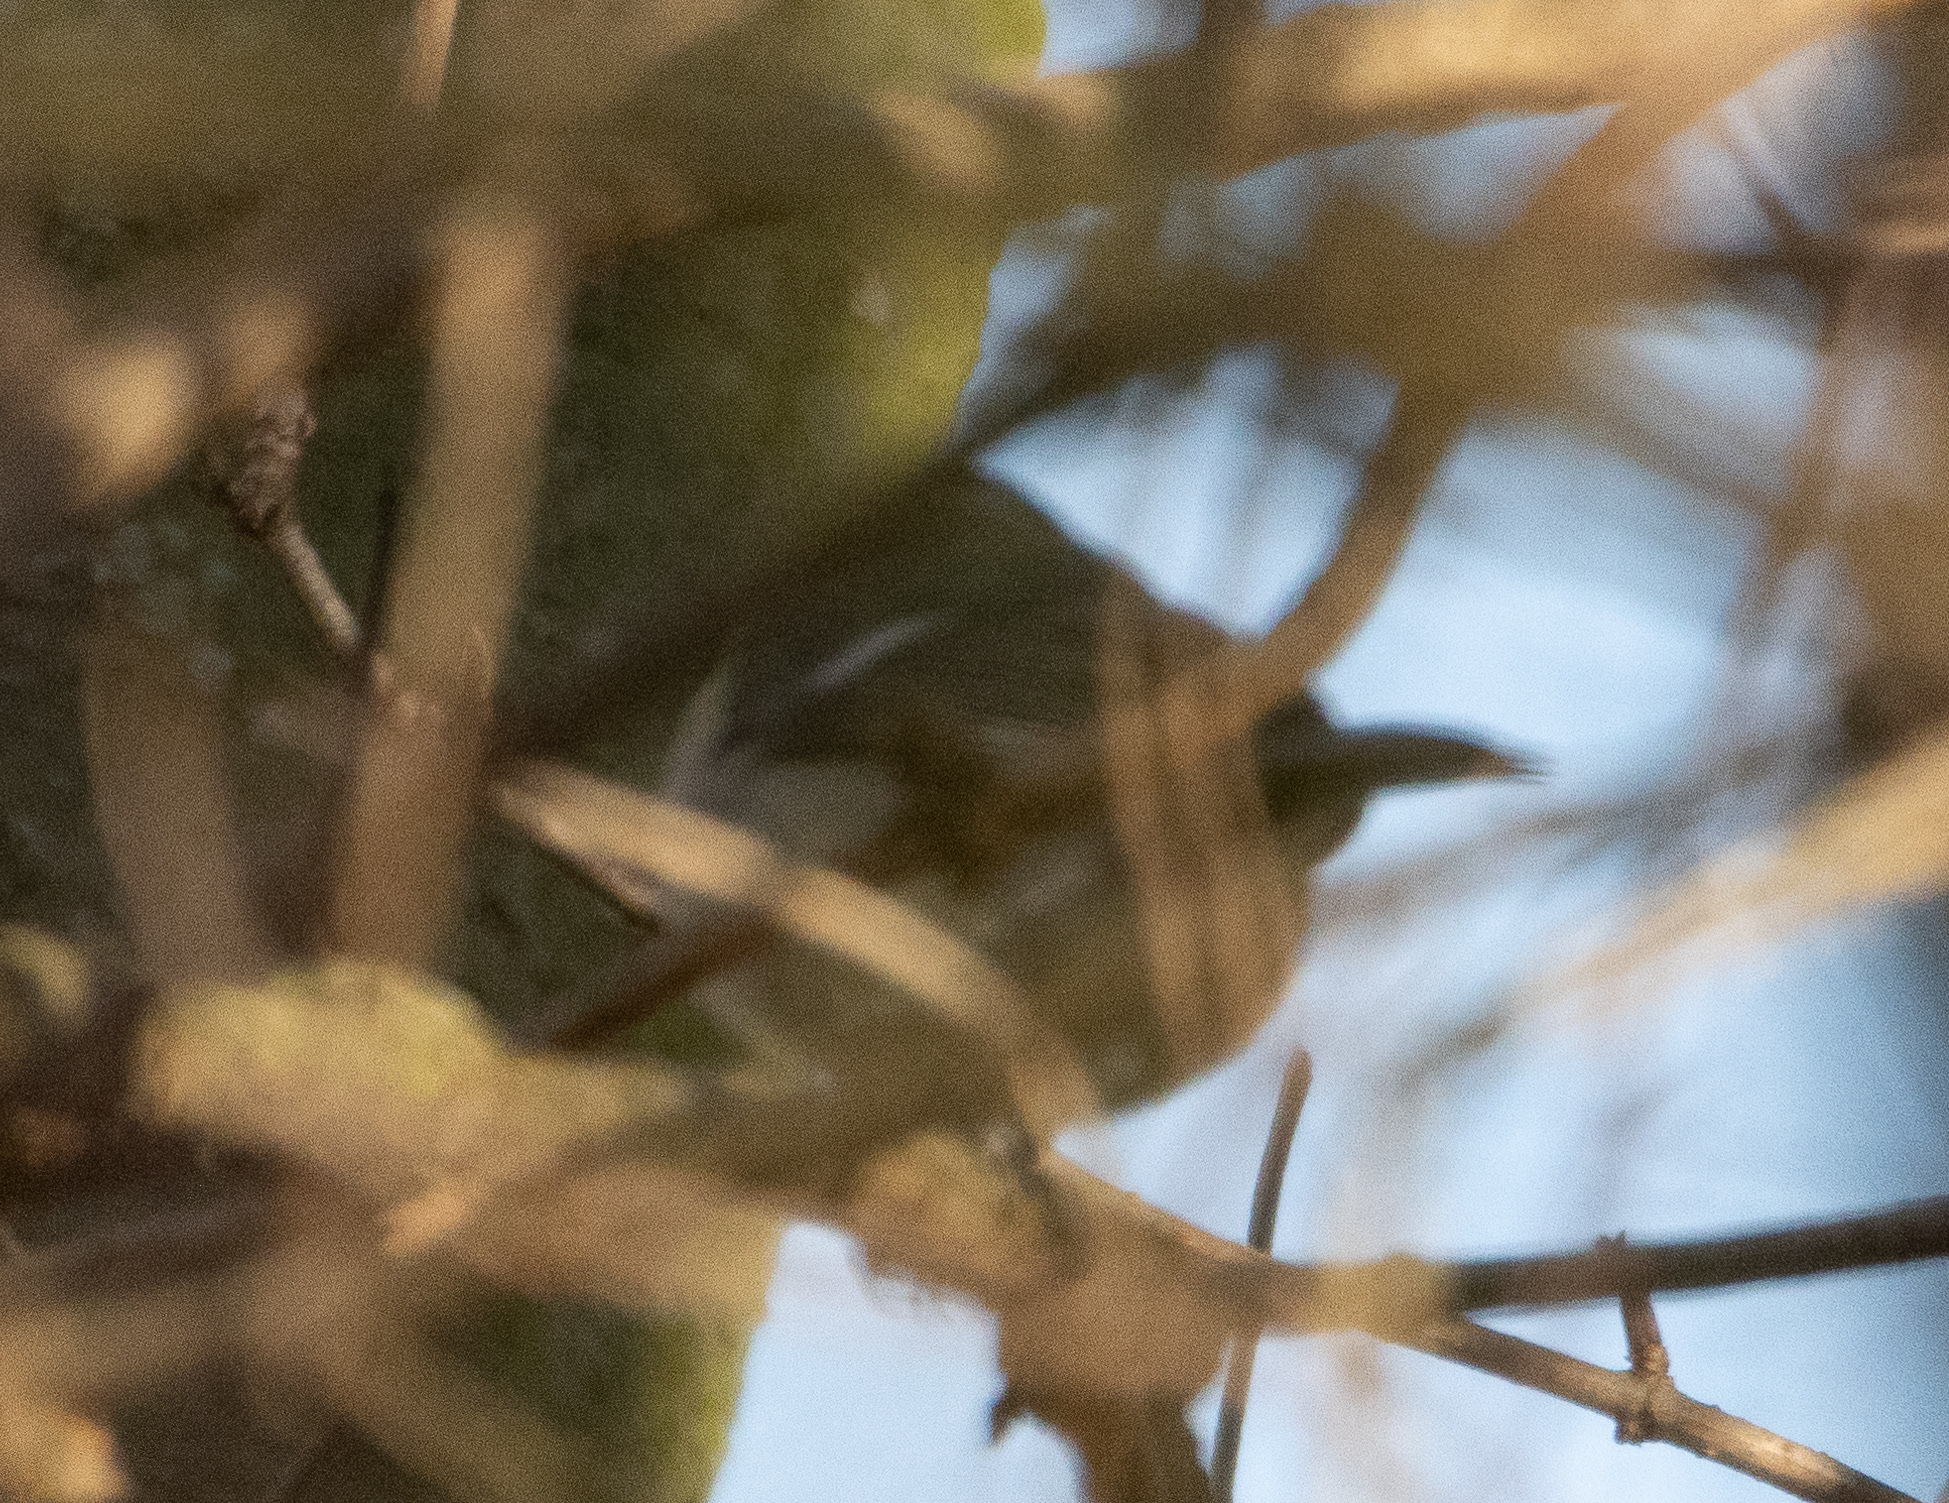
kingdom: Animalia
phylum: Chordata
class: Aves
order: Passeriformes
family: Regulidae
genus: Regulus
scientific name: Regulus regulus
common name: Goldcrest
